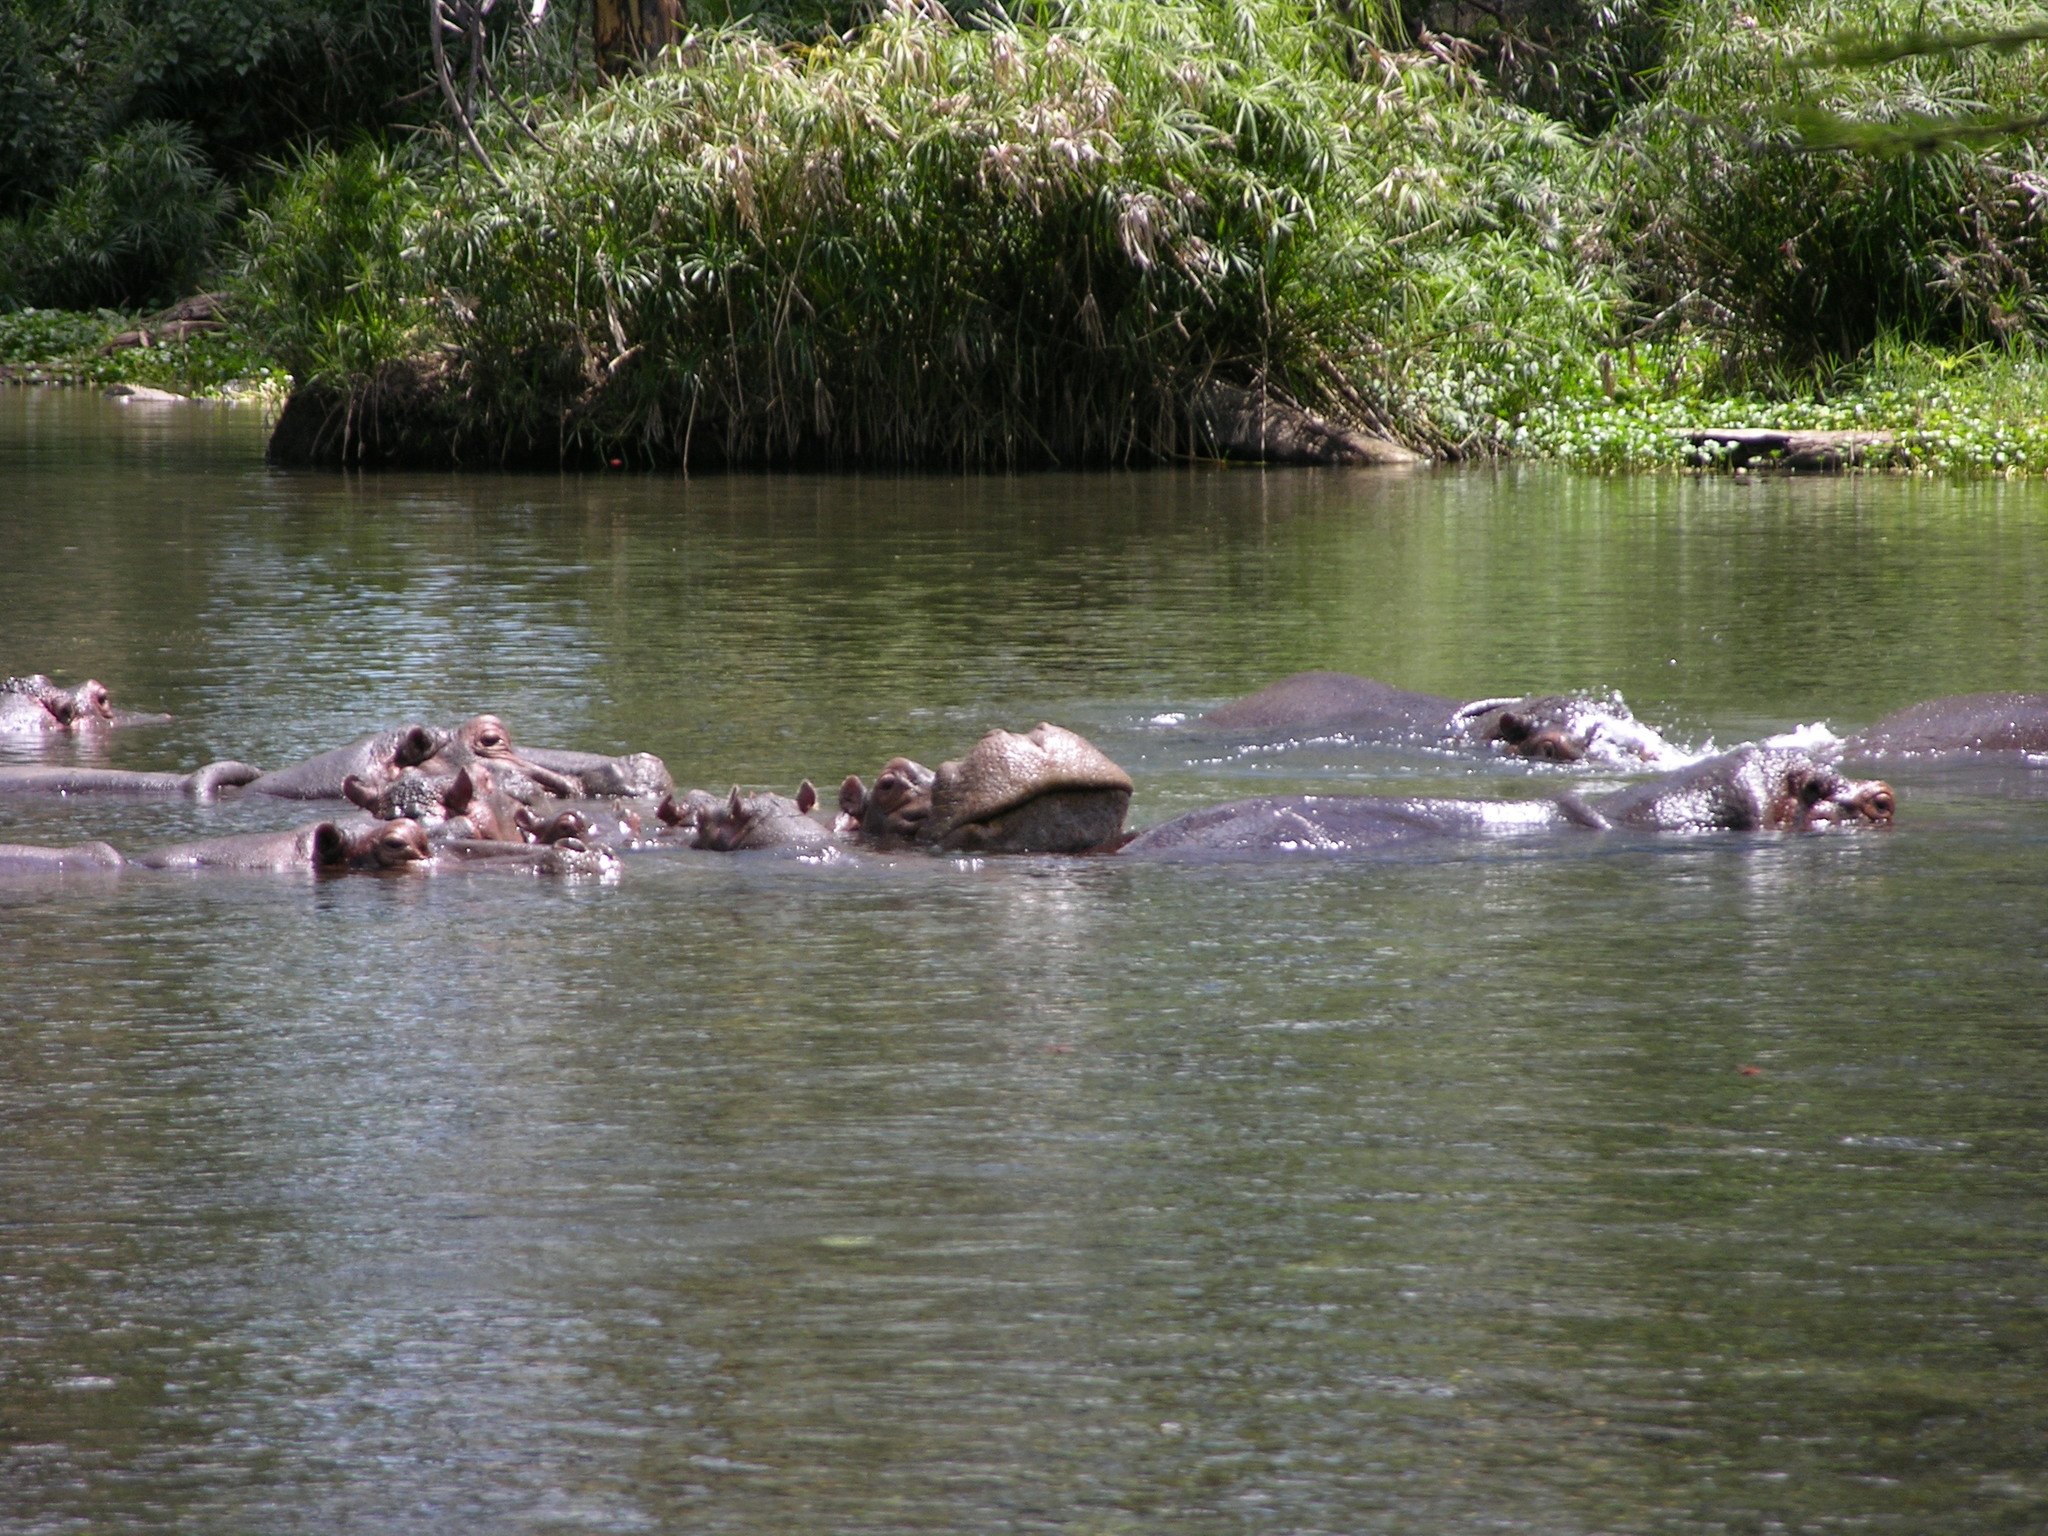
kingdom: Animalia
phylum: Chordata
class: Mammalia
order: Artiodactyla
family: Hippopotamidae
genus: Hippopotamus
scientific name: Hippopotamus amphibius
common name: Common hippopotamus
